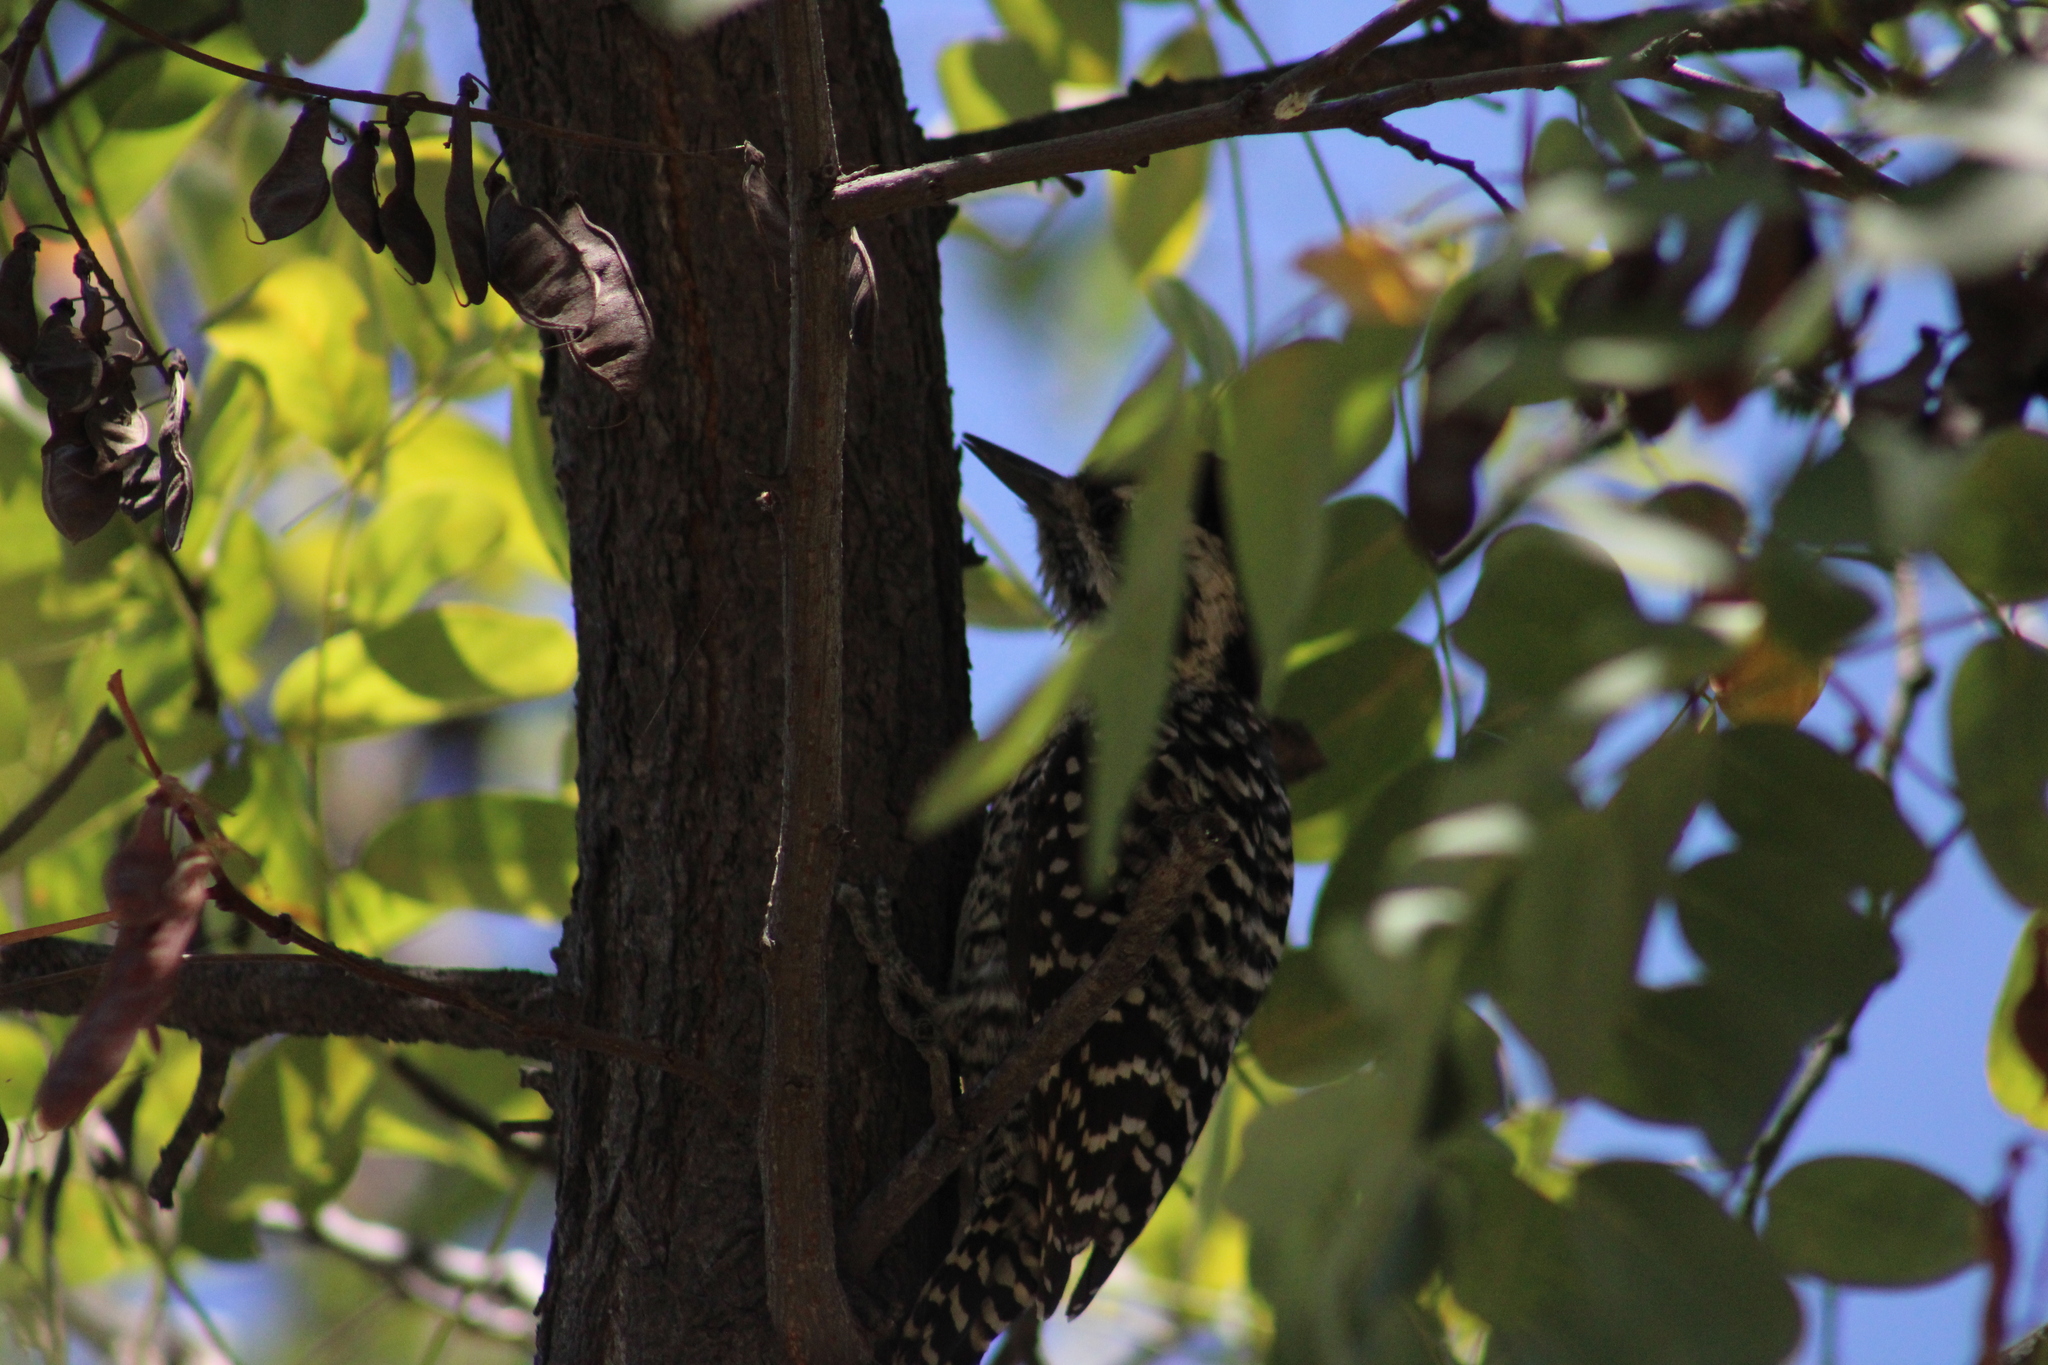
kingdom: Animalia
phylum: Chordata
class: Aves
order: Piciformes
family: Picidae
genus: Veniliornis
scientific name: Veniliornis lignarius
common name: Striped woodpecker
